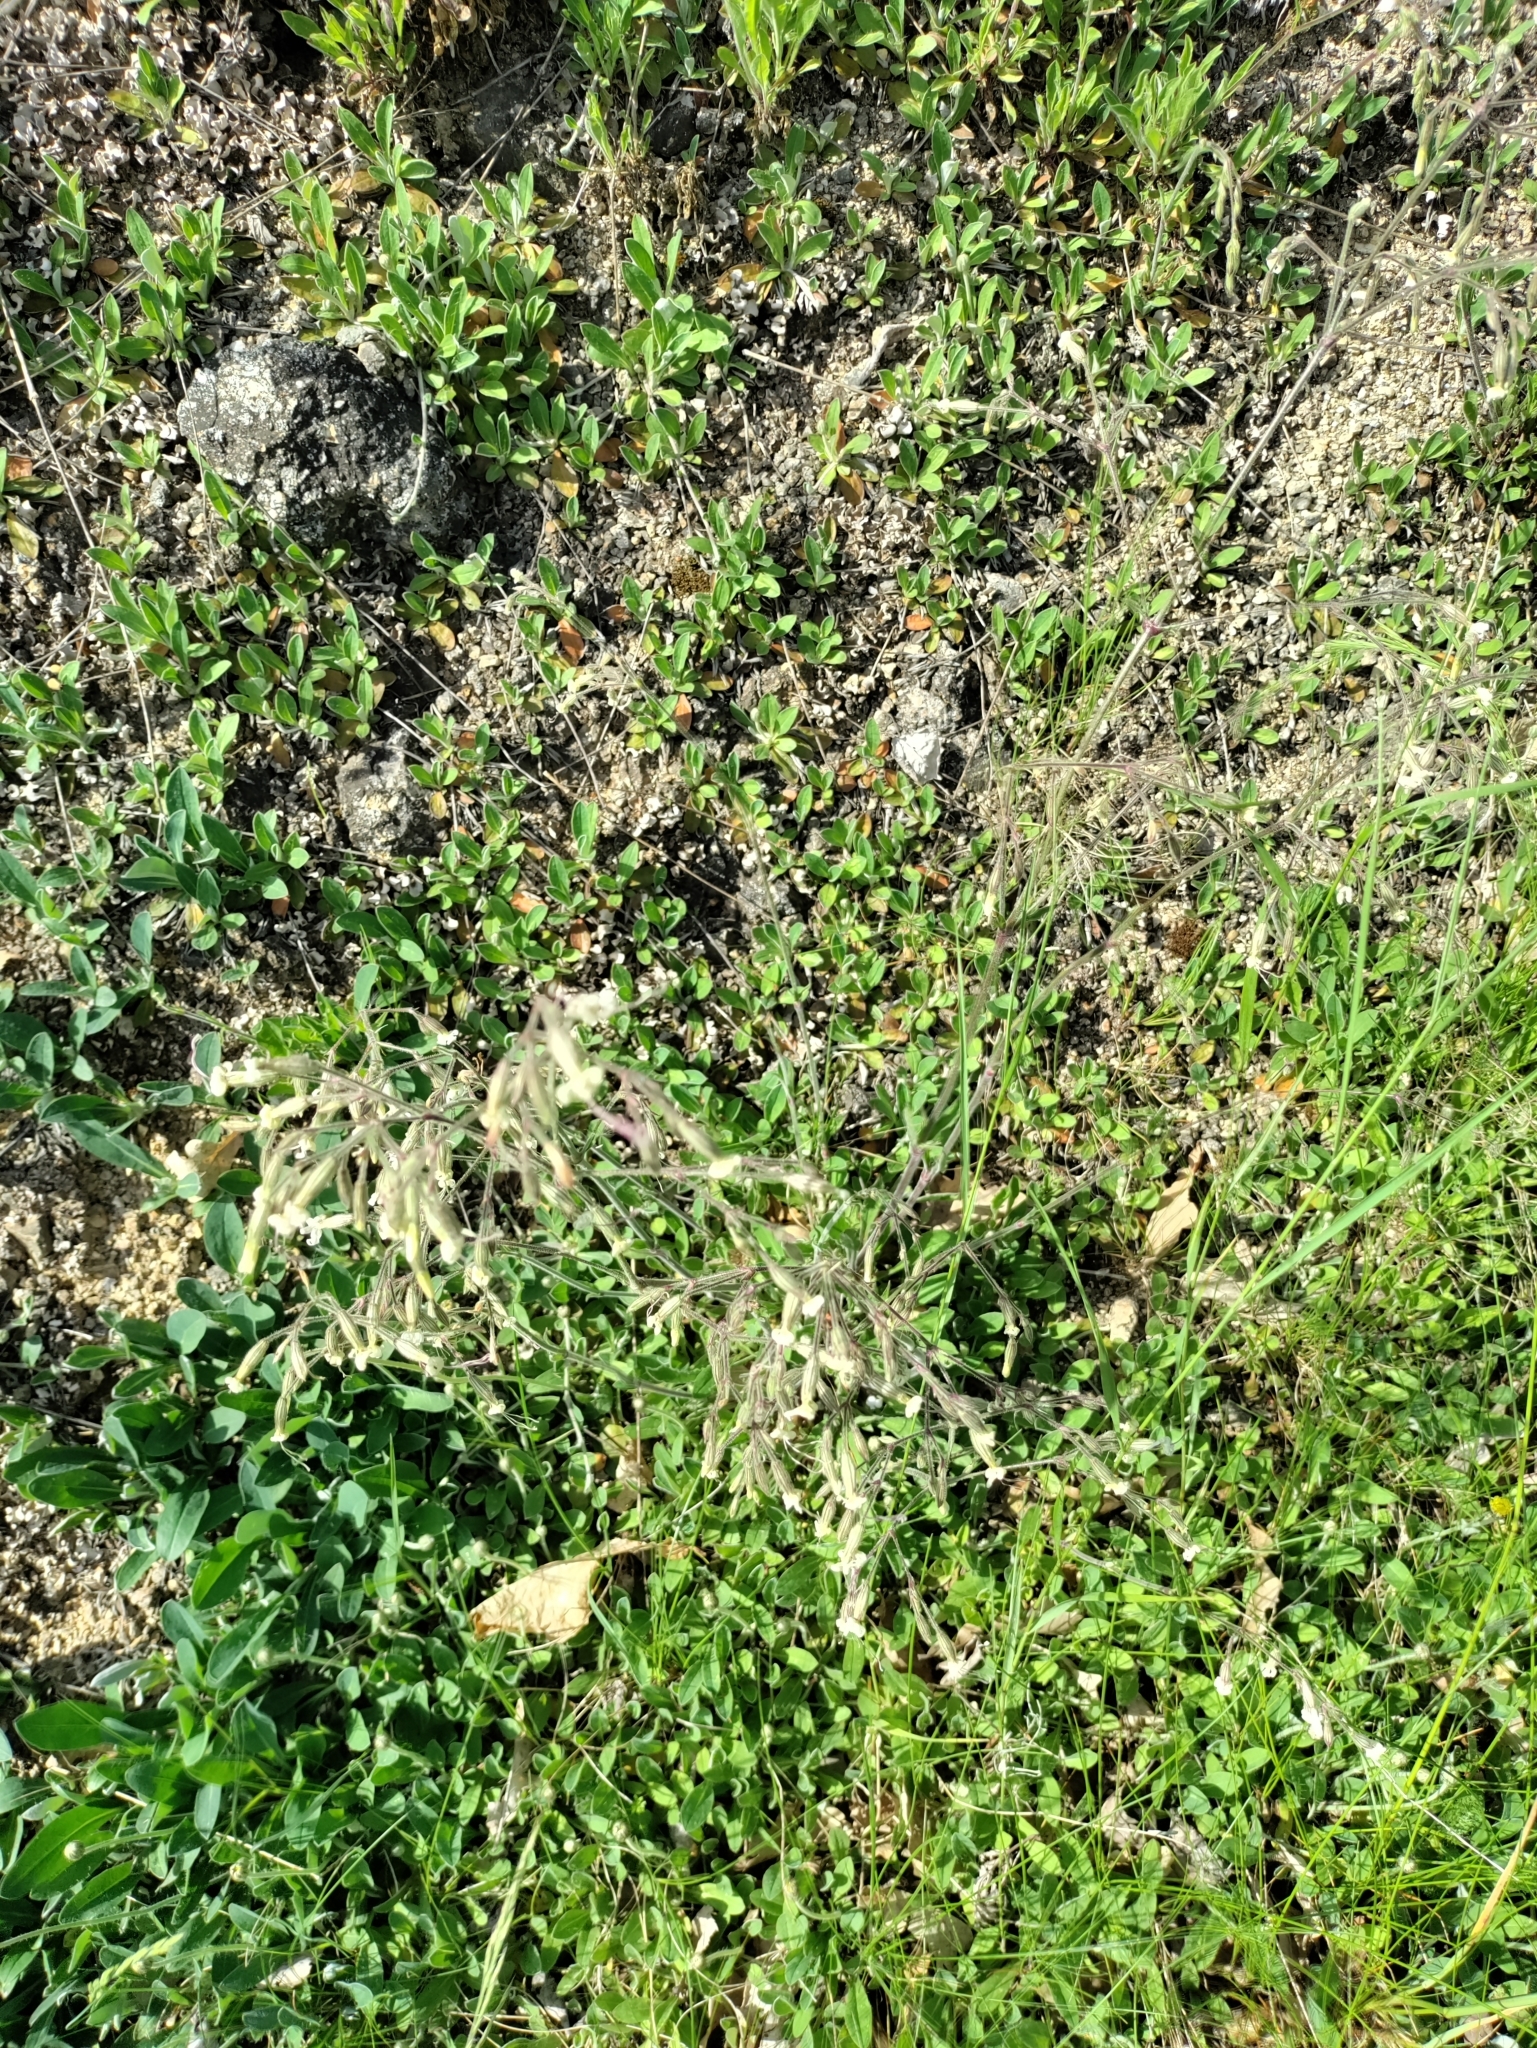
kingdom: Plantae
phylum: Tracheophyta
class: Magnoliopsida
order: Caryophyllales
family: Caryophyllaceae
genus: Silene
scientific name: Silene nutans
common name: Nottingham catchfly
